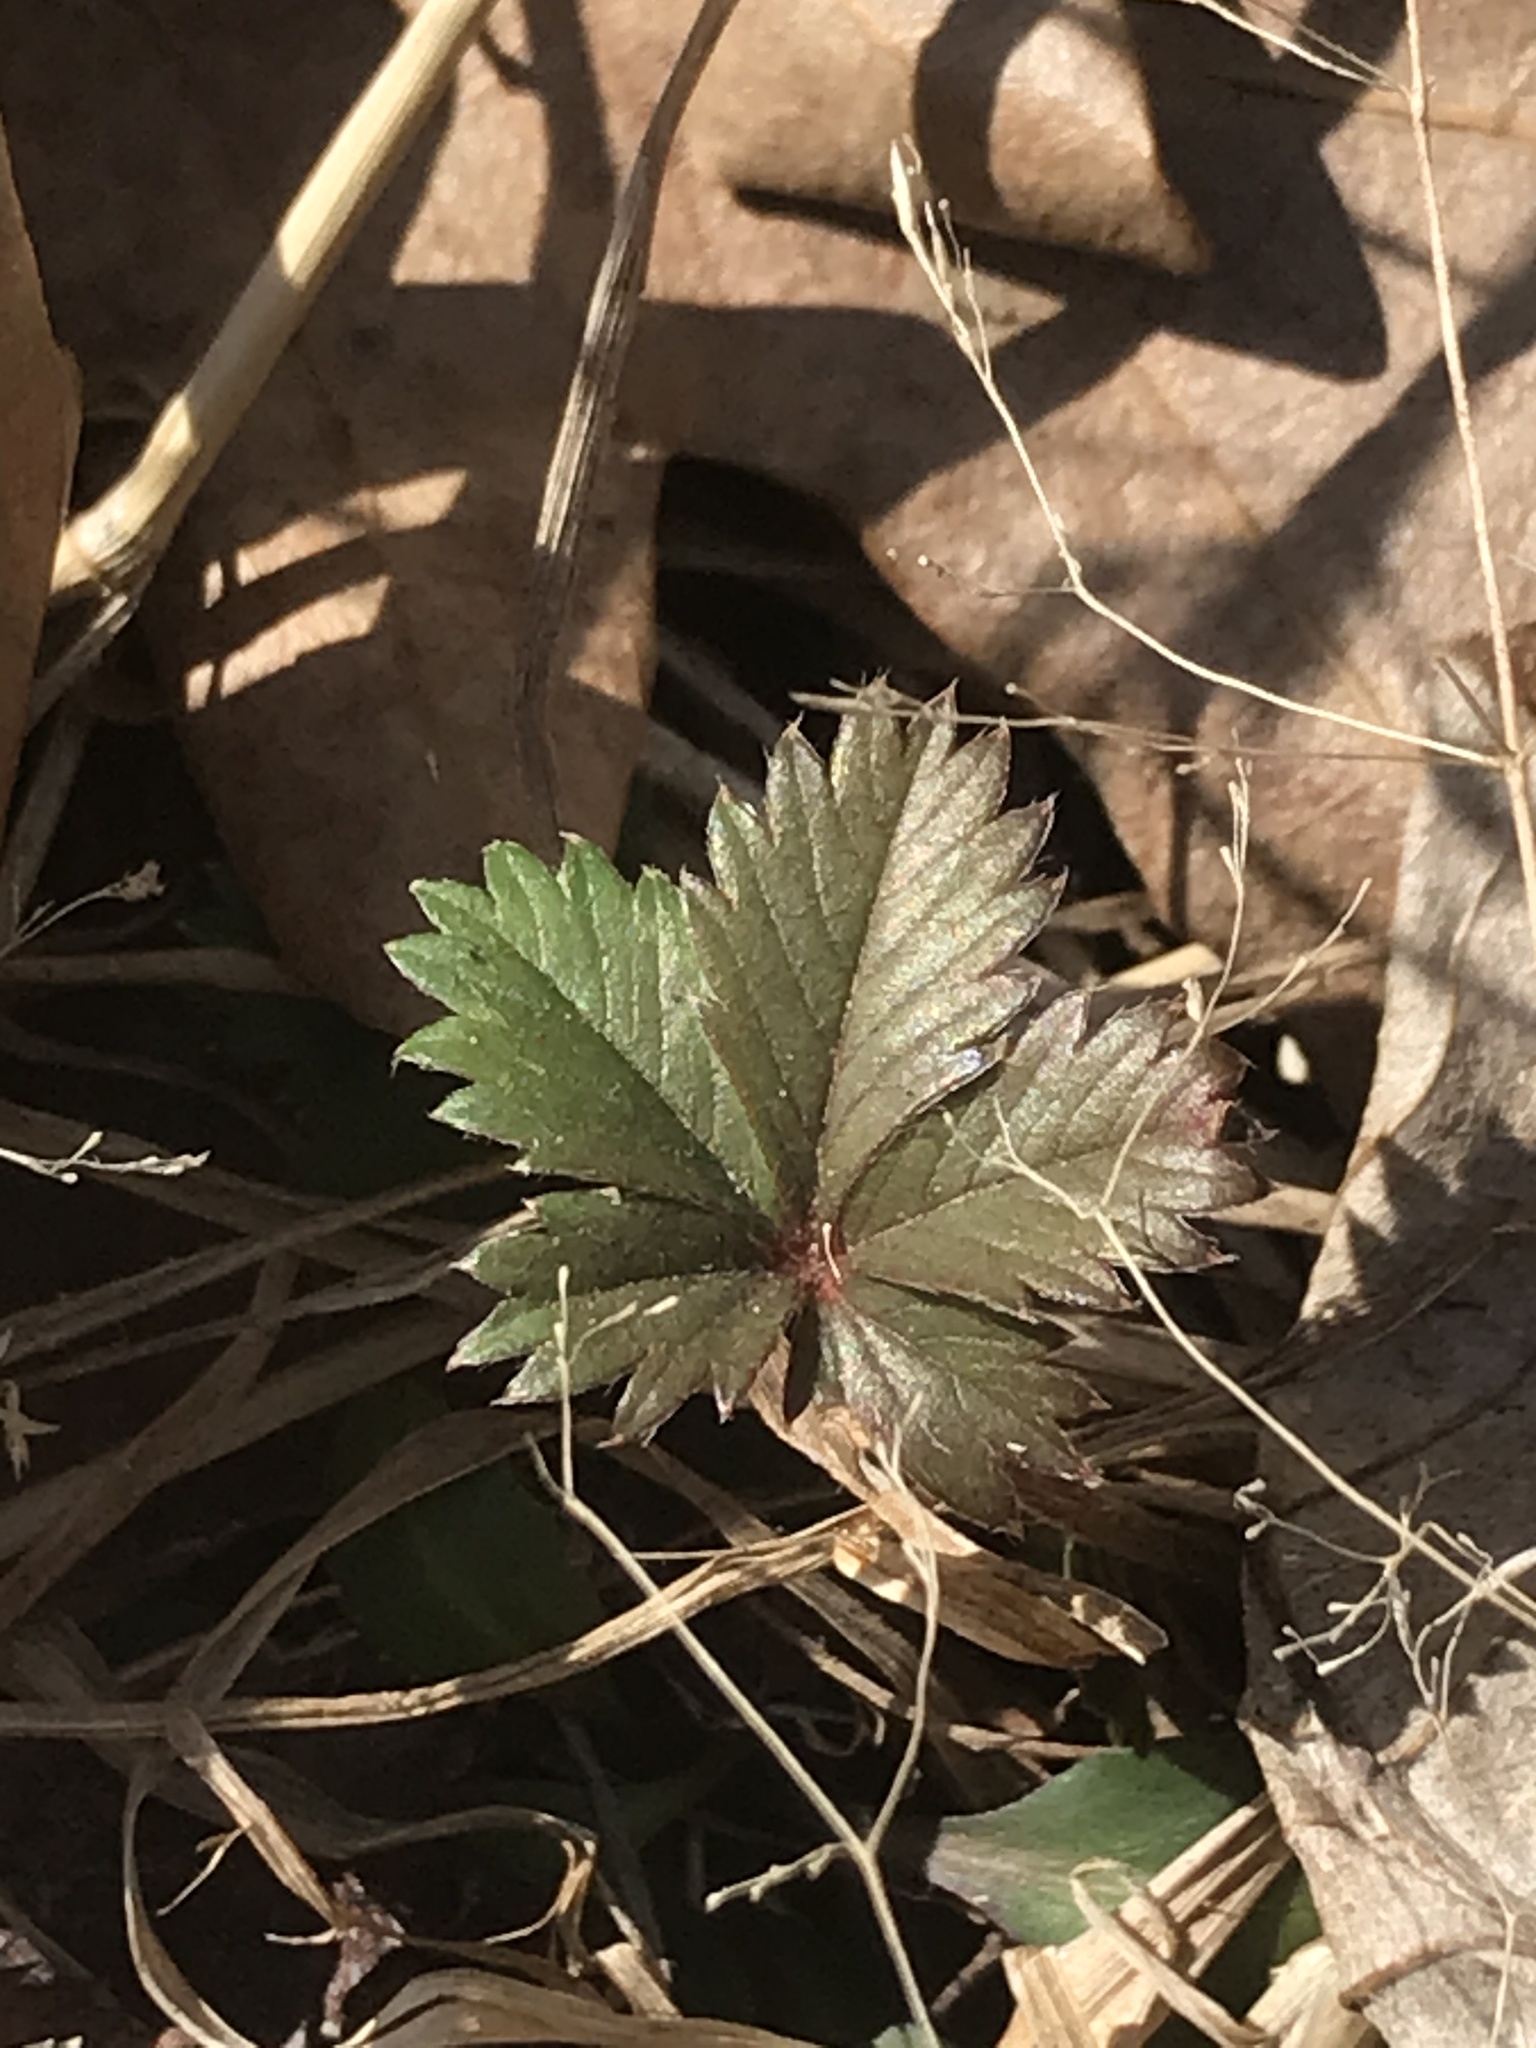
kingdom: Plantae
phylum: Tracheophyta
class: Magnoliopsida
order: Rosales
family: Rosaceae
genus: Potentilla
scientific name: Potentilla canadensis
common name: Canada cinquefoil
